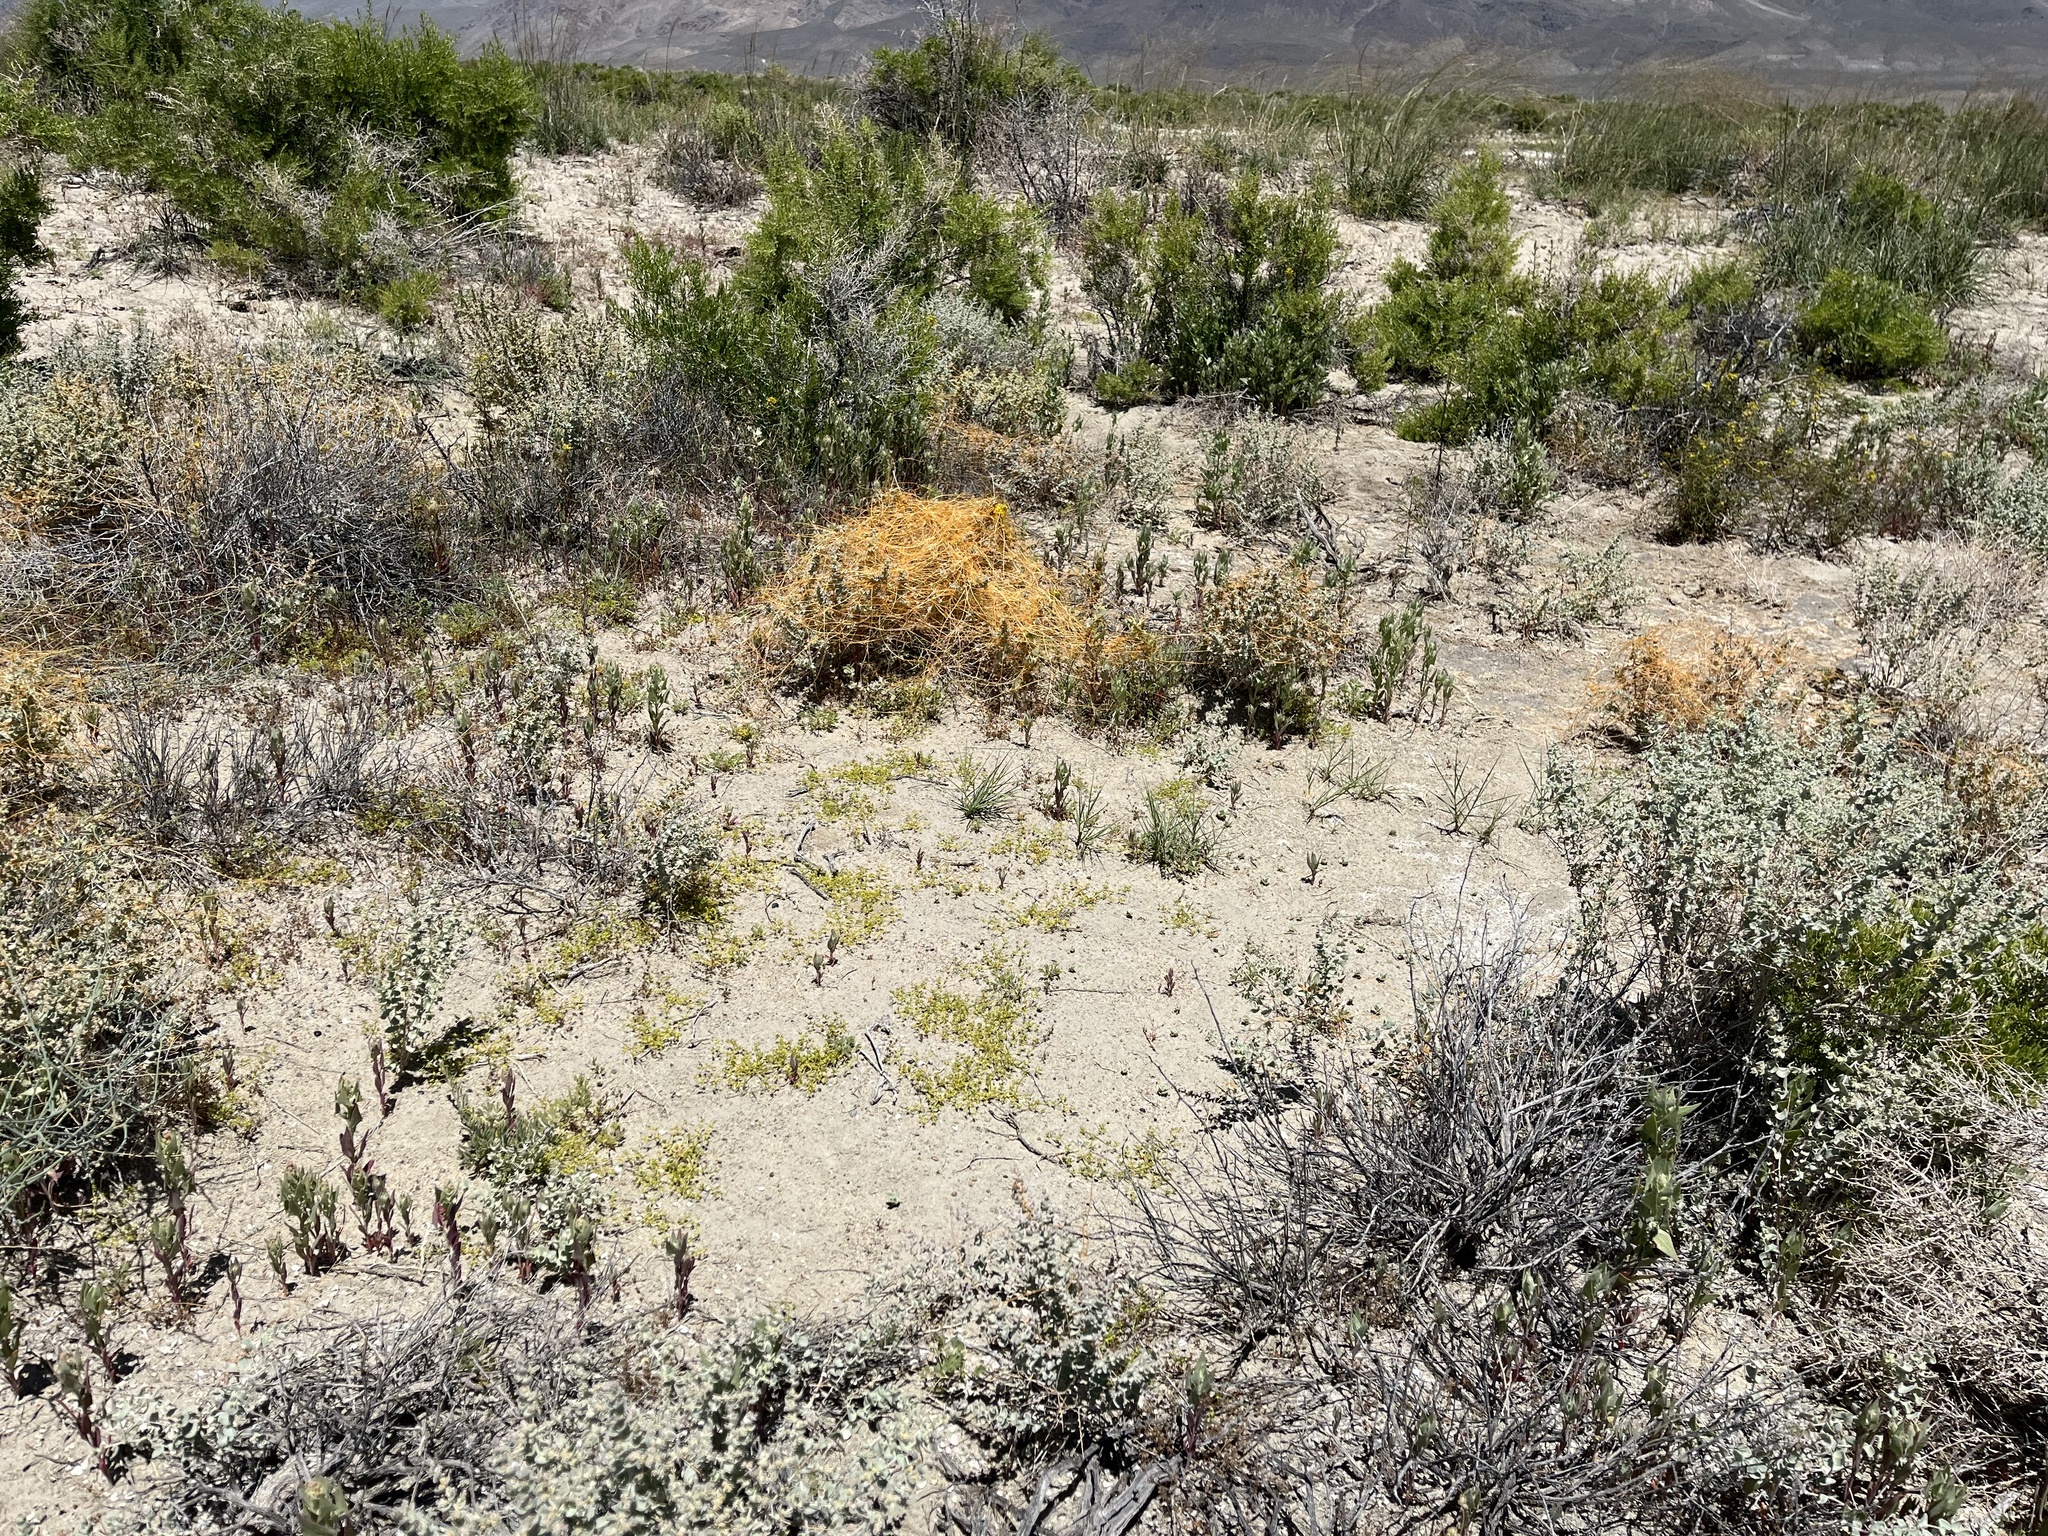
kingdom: Plantae
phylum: Tracheophyta
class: Magnoliopsida
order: Caryophyllales
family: Polygonaceae
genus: Goodmania
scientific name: Goodmania luteola
